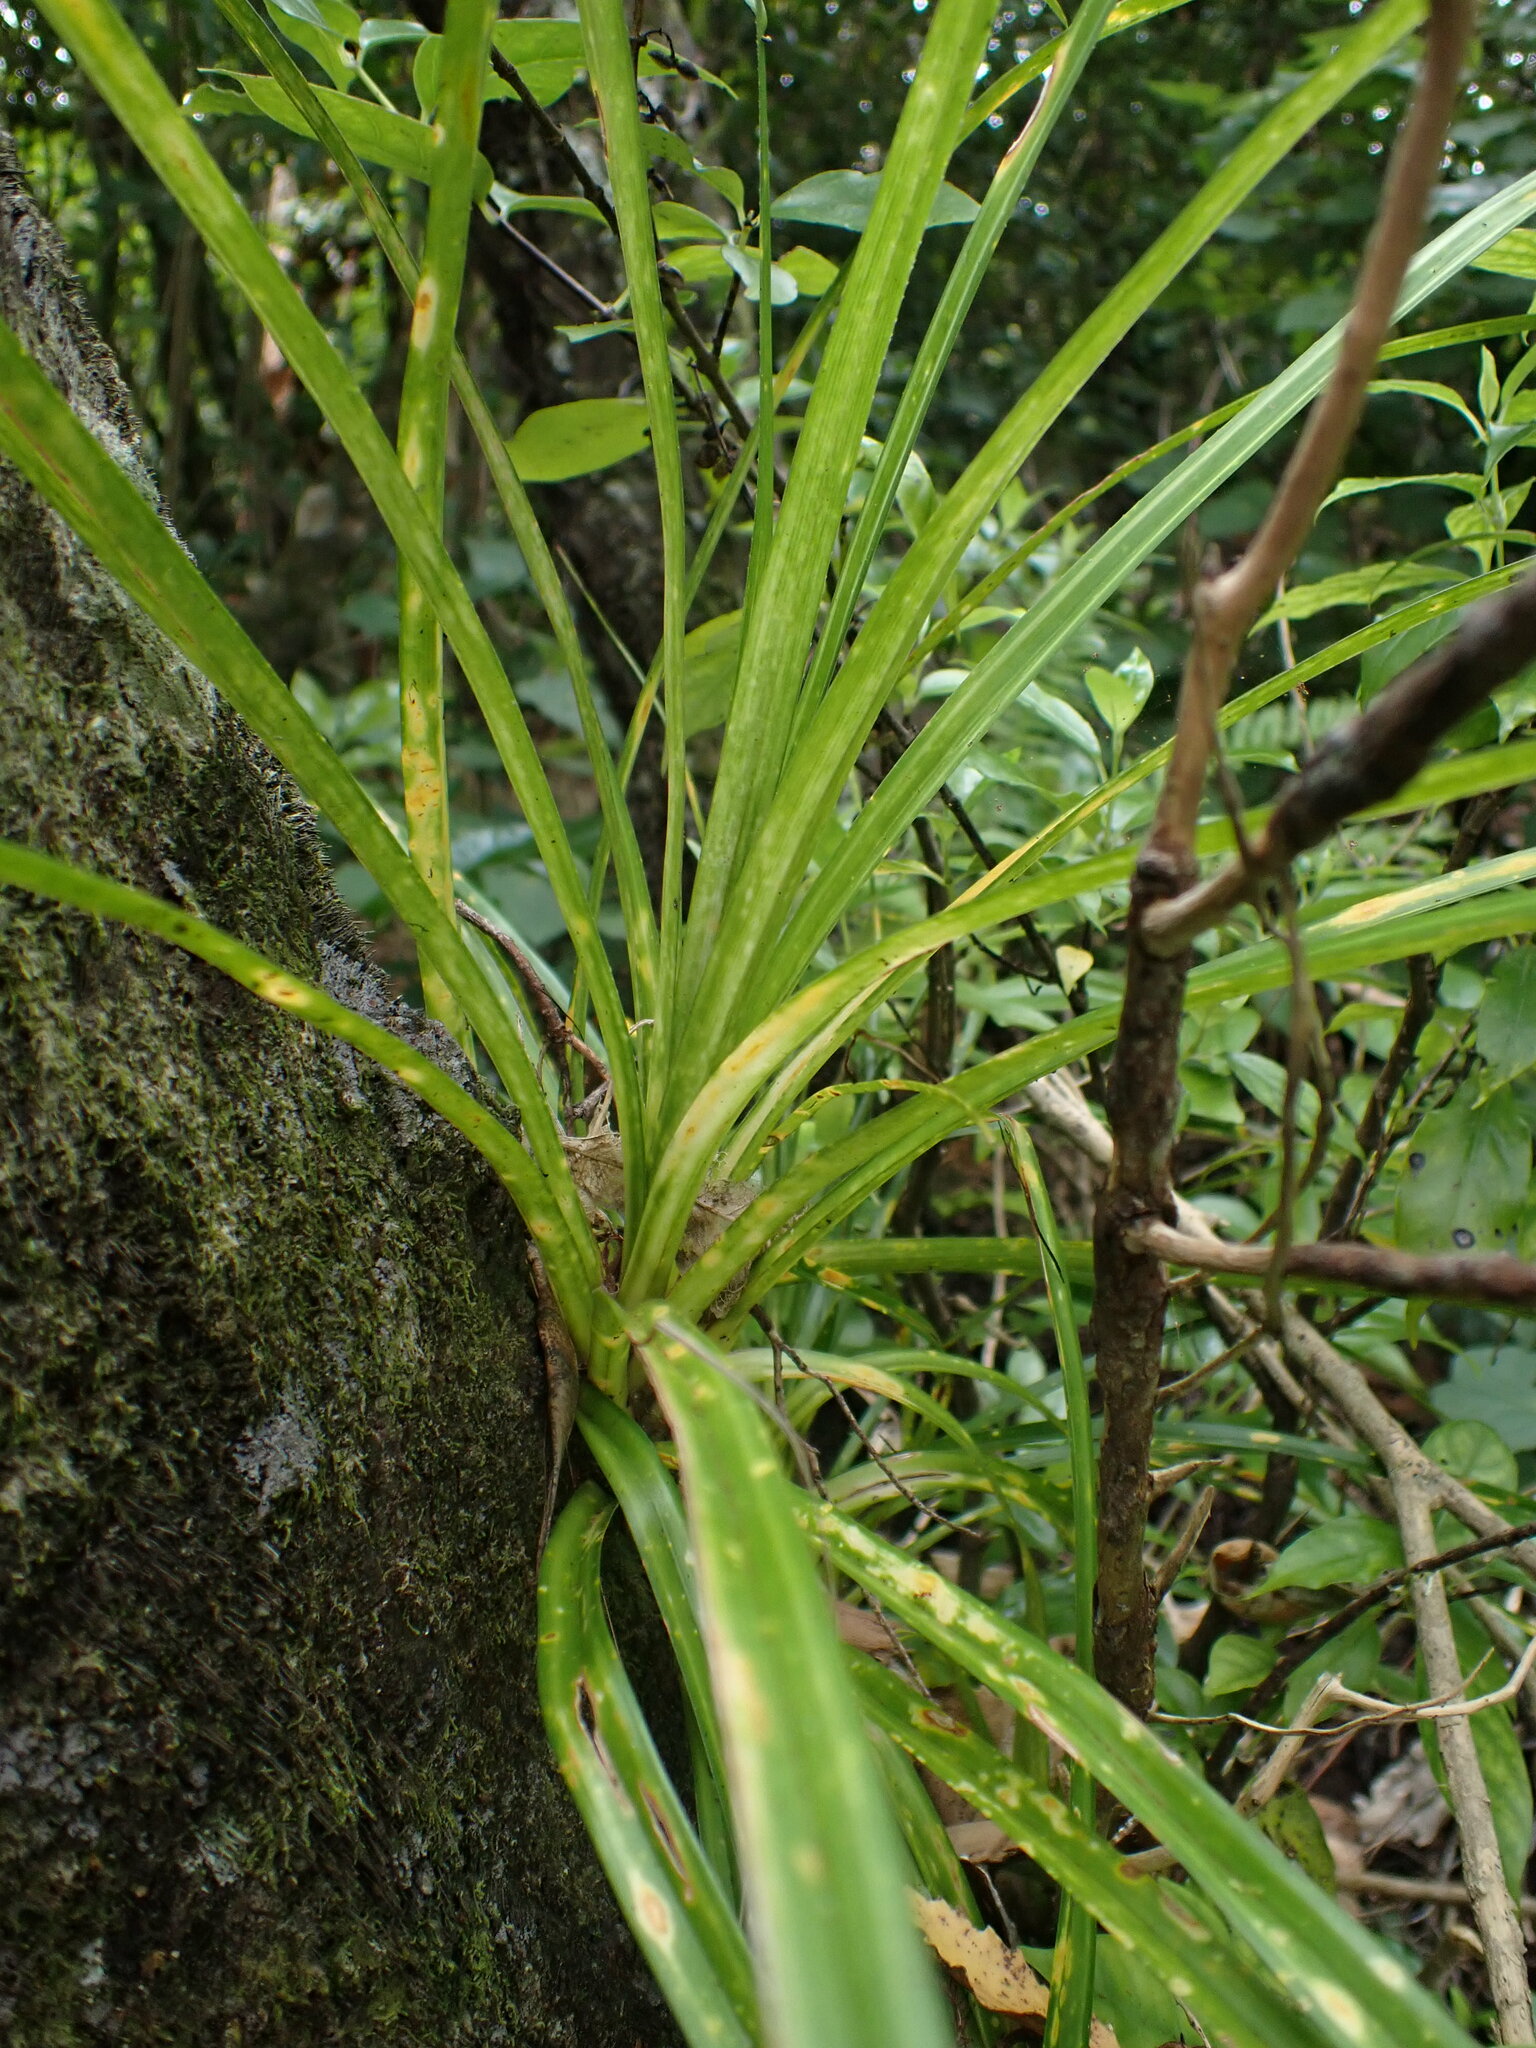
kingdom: Plantae
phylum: Tracheophyta
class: Liliopsida
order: Pandanales
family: Pandanaceae
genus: Freycinetia
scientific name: Freycinetia banksii
